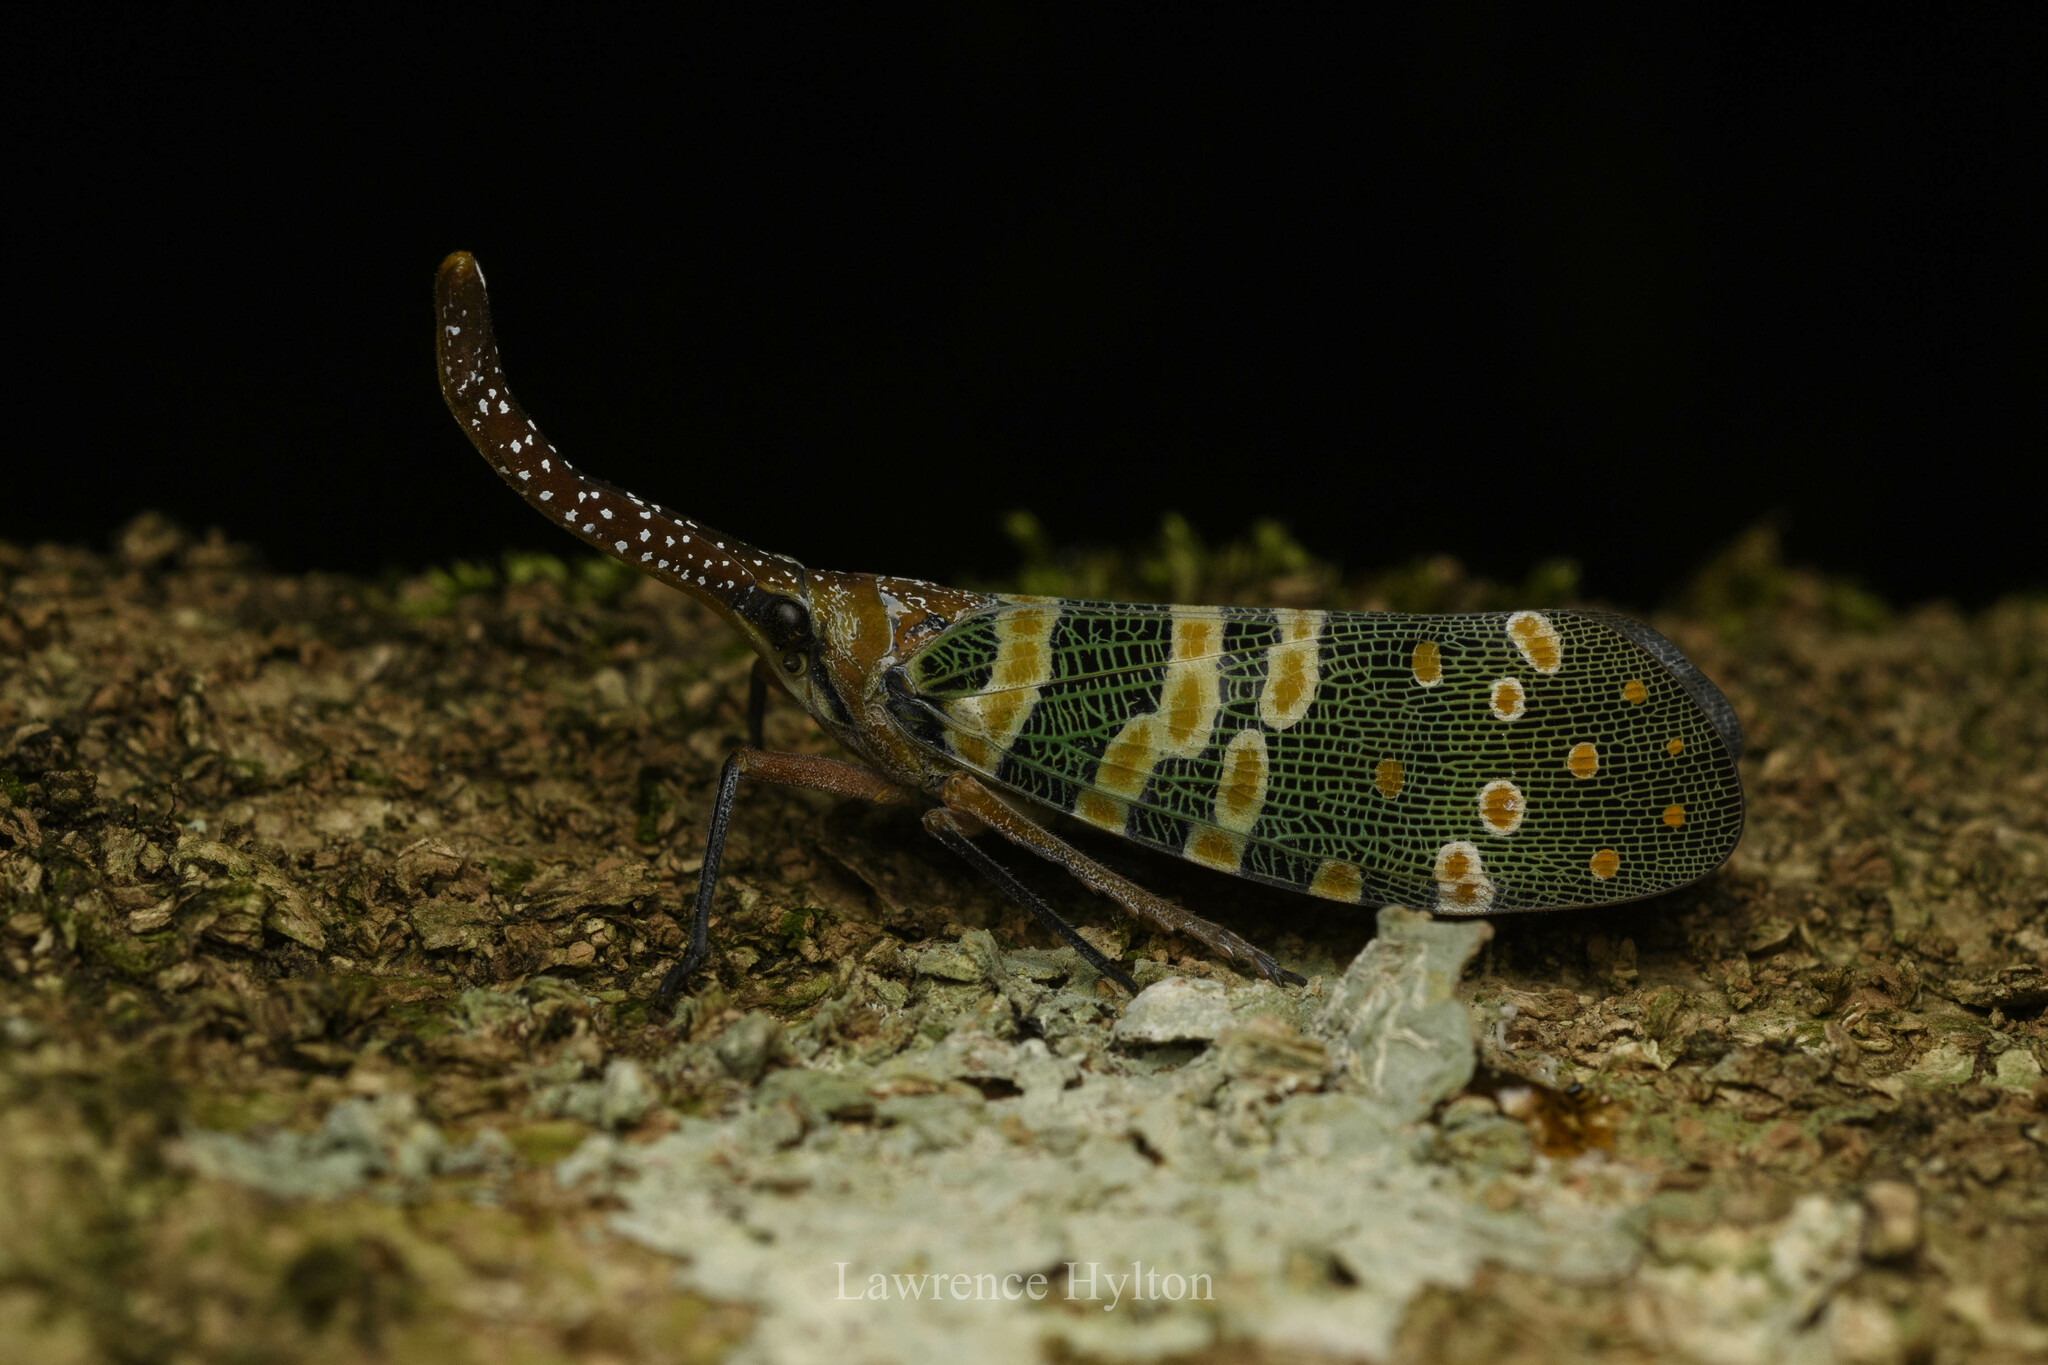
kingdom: Animalia
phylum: Arthropoda
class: Insecta
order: Hemiptera
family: Fulgoridae
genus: Pyrops
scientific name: Pyrops candelaria
